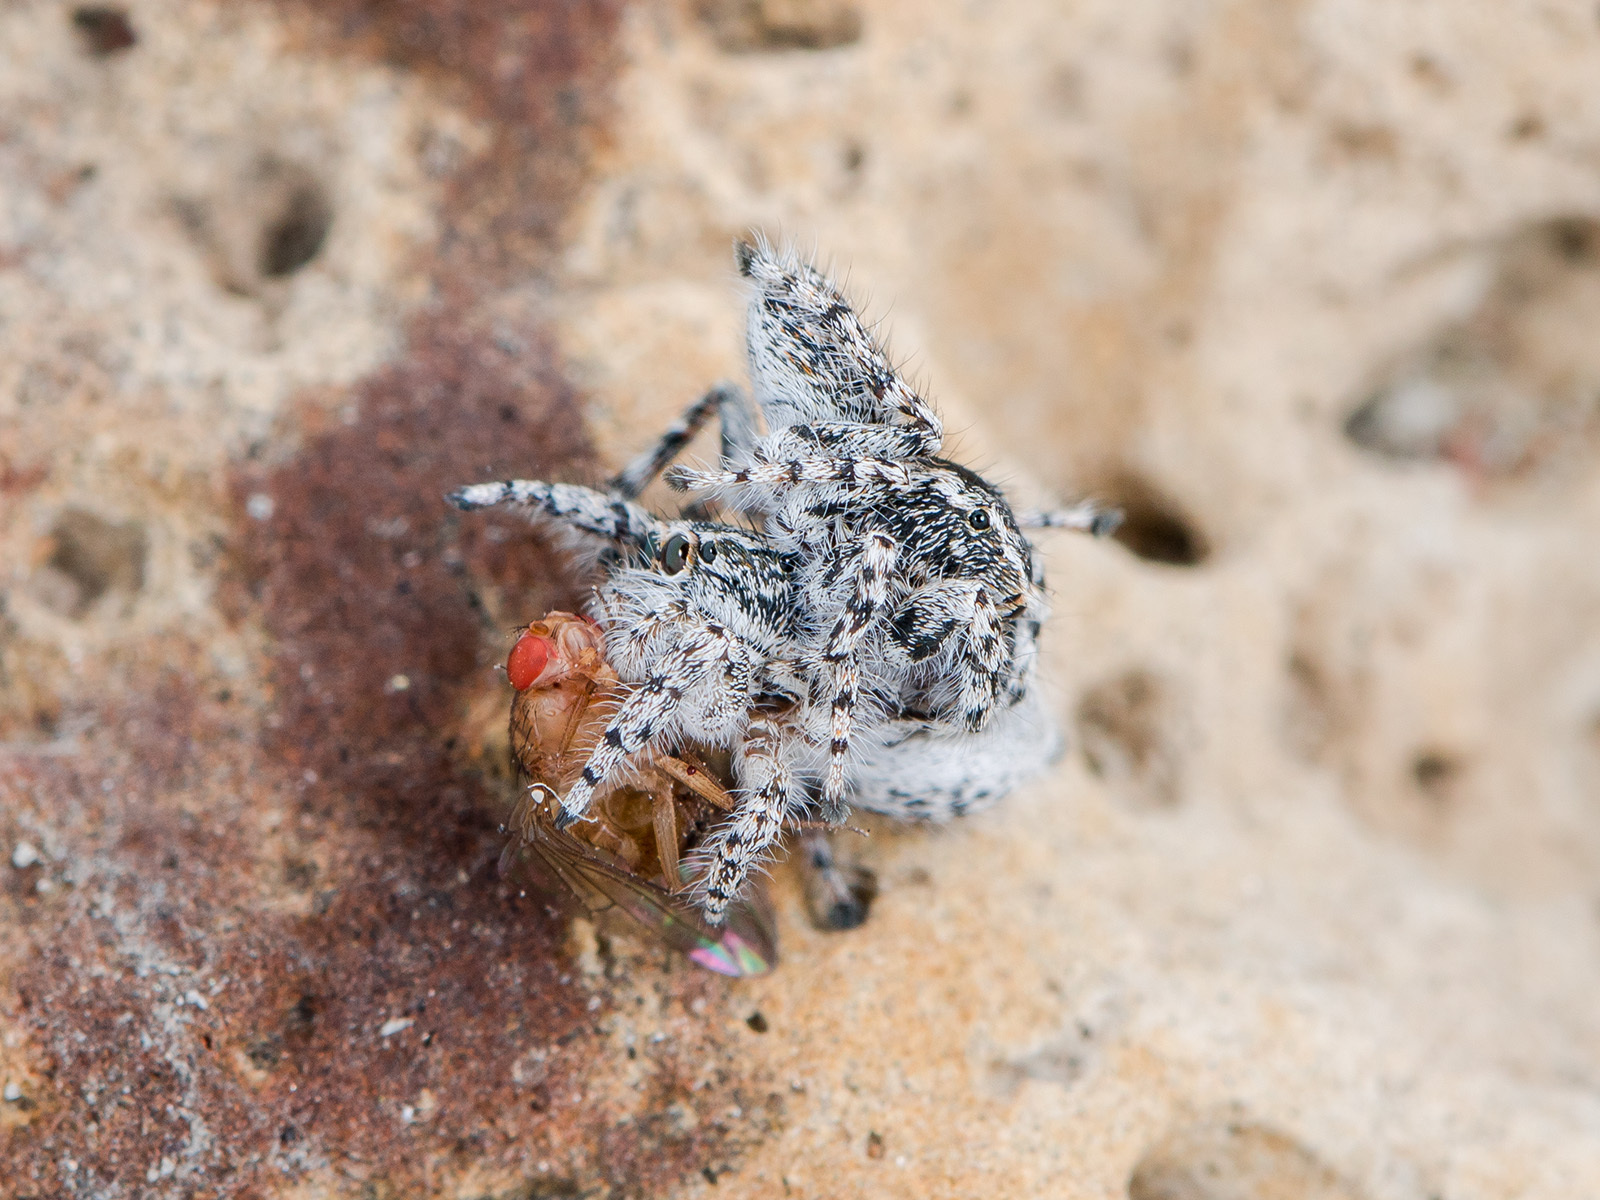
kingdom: Animalia
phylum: Arthropoda
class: Arachnida
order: Araneae
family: Salticidae
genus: Pseudomogrus
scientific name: Pseudomogrus mirabilis
